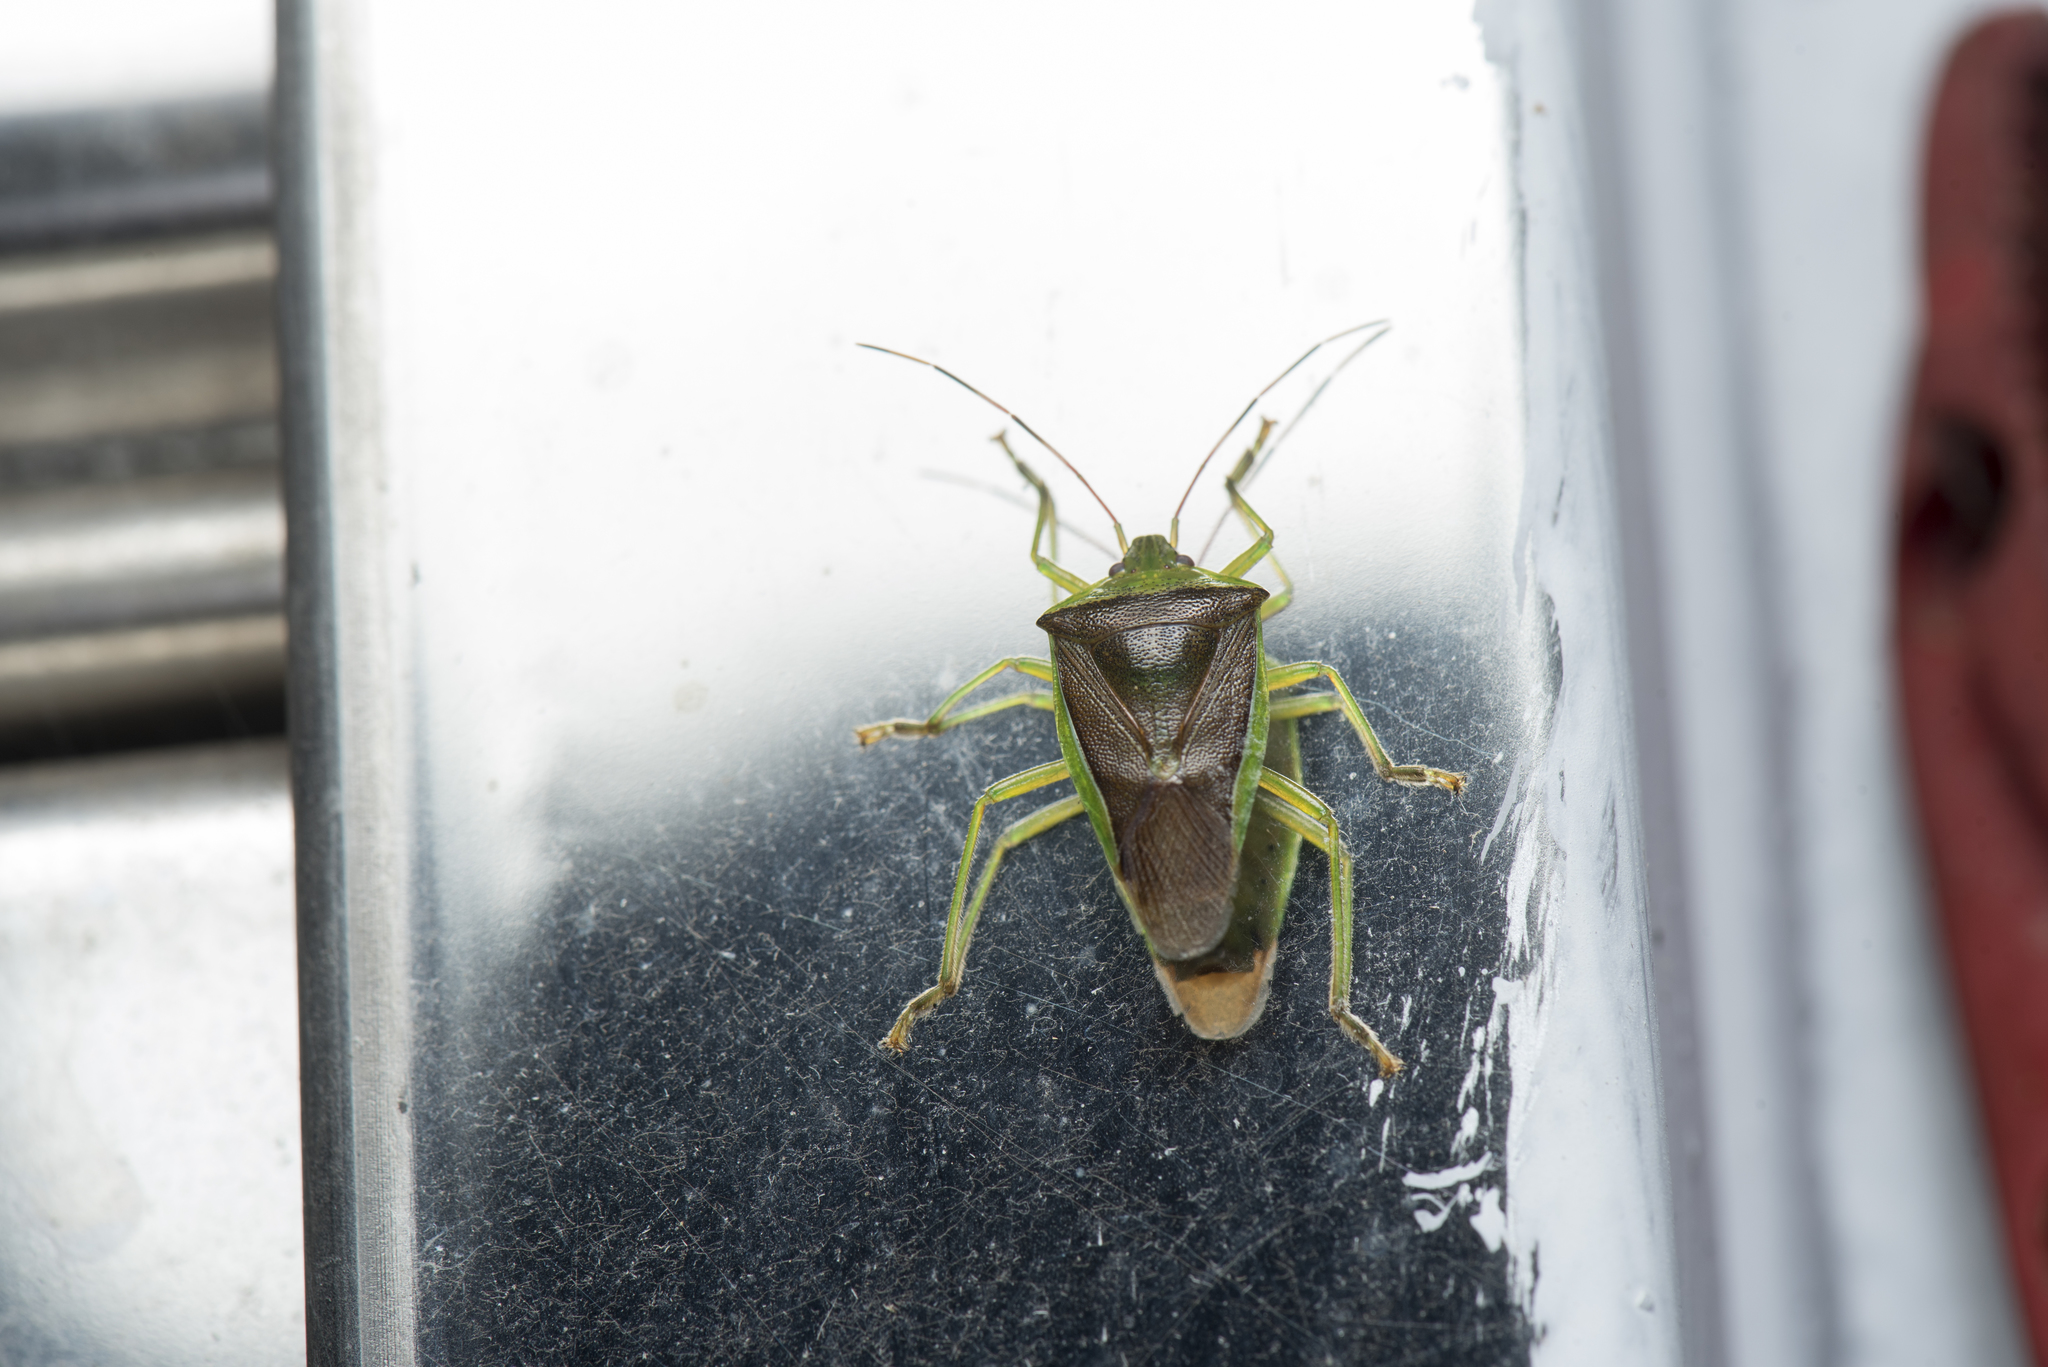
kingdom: Animalia
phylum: Arthropoda
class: Insecta
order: Hemiptera
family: Pentatomidae
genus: Neojurtina
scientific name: Neojurtina typica
